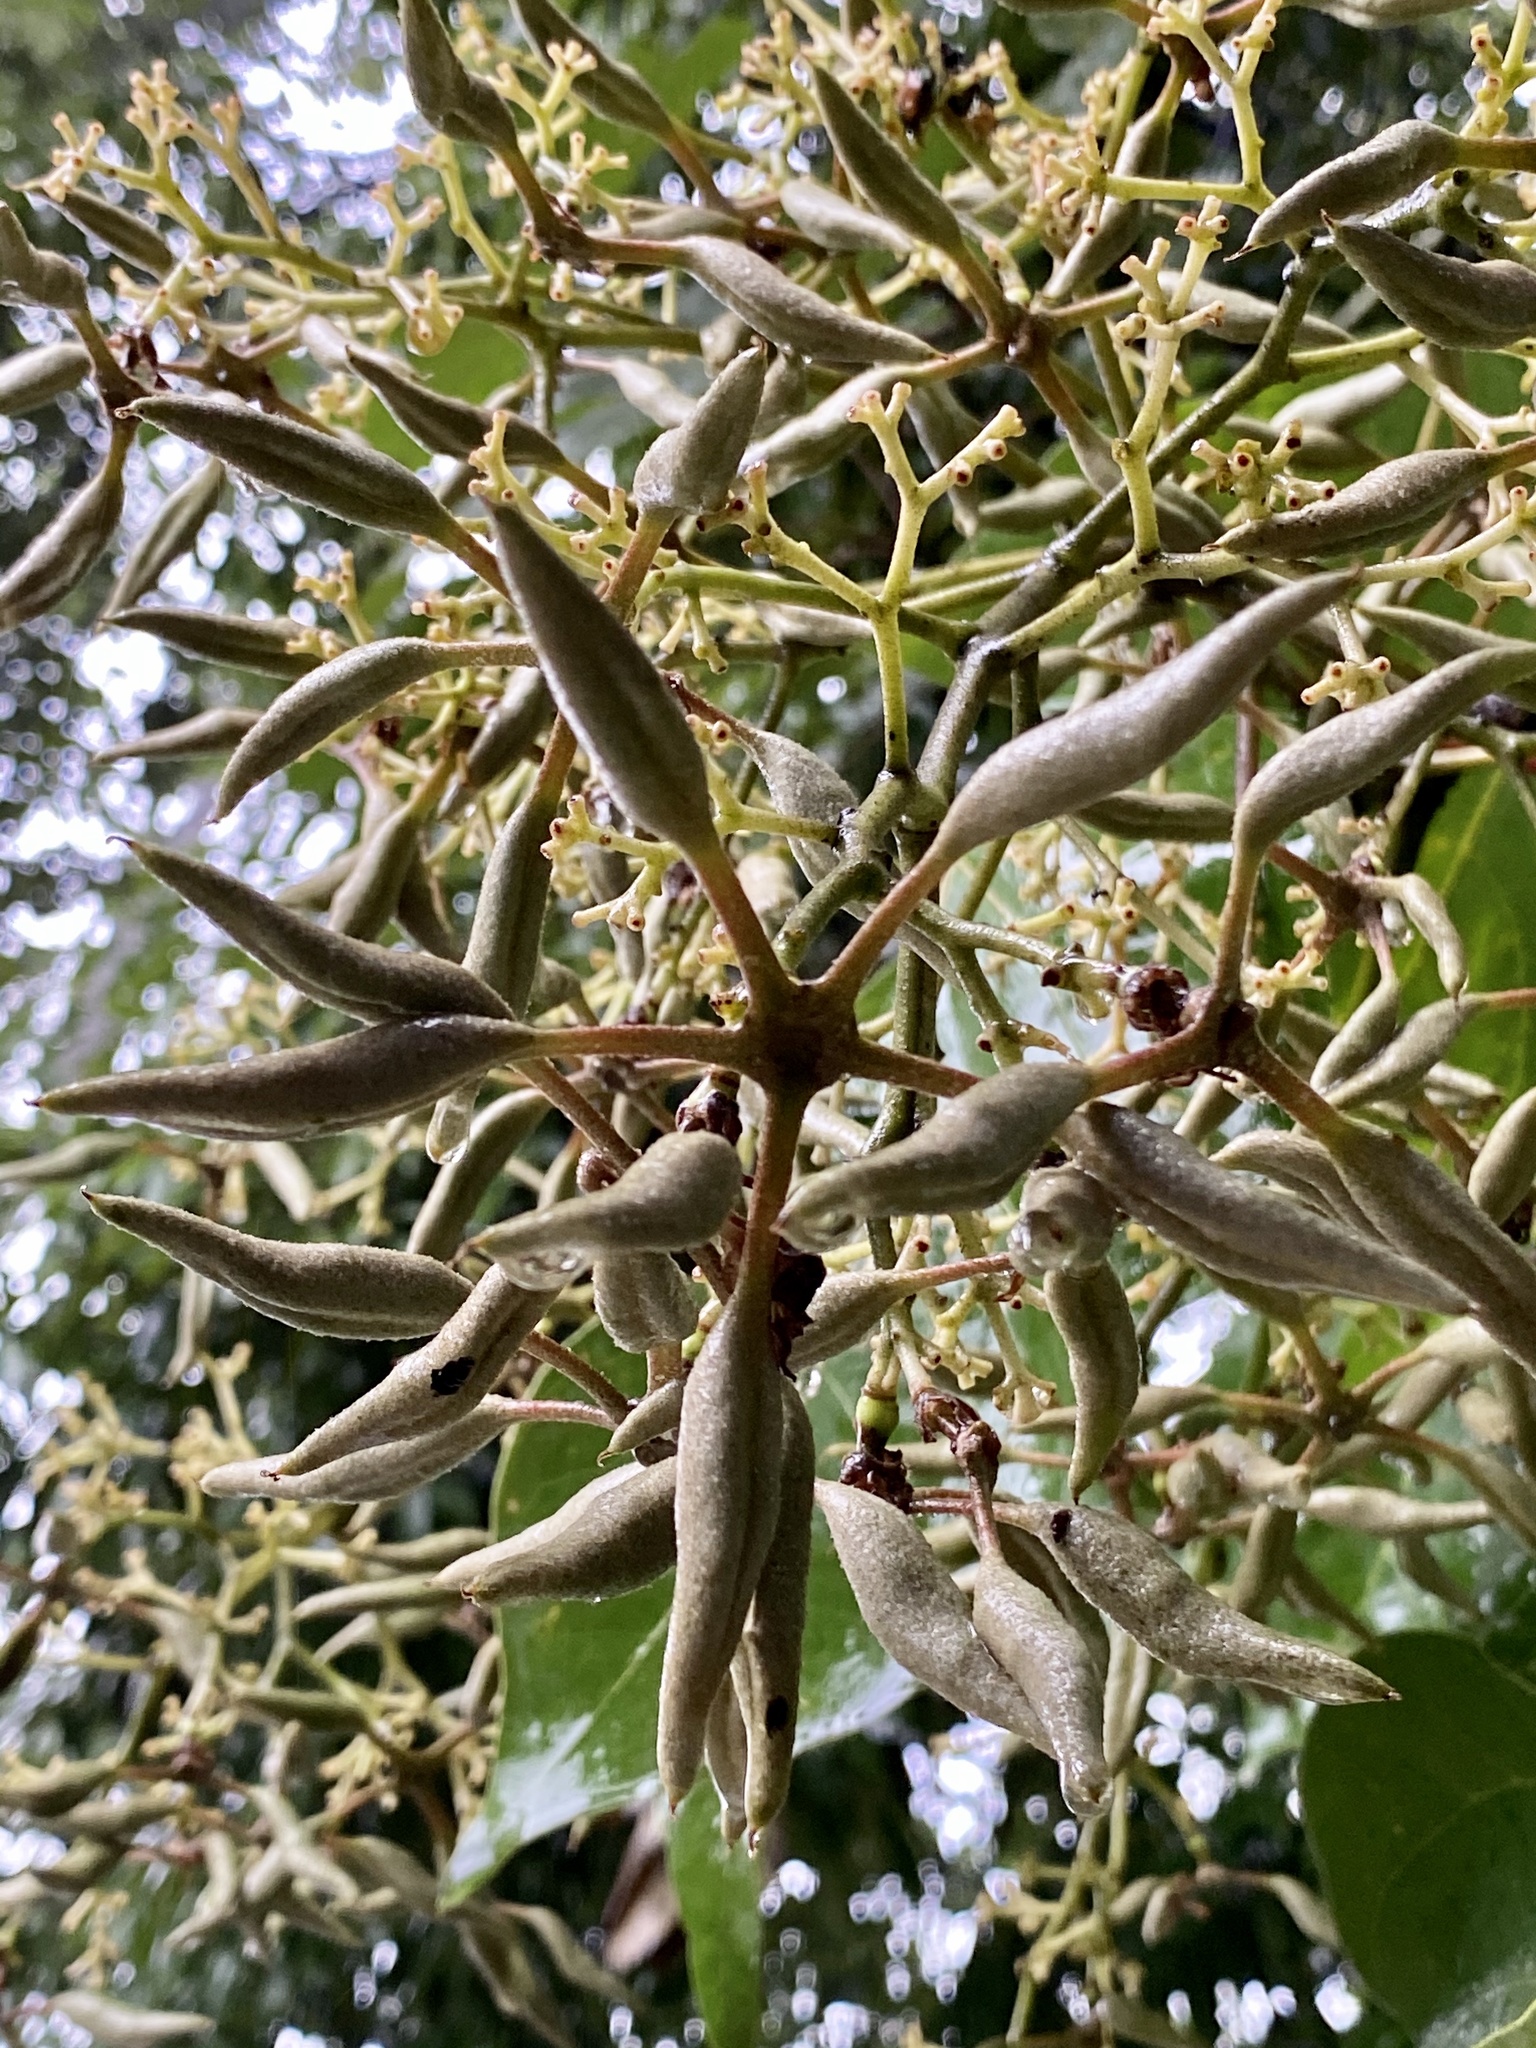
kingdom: Plantae
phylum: Tracheophyta
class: Magnoliopsida
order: Malvales
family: Malvaceae
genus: Firmiana
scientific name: Firmiana simplex
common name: Chinese parasoltree
